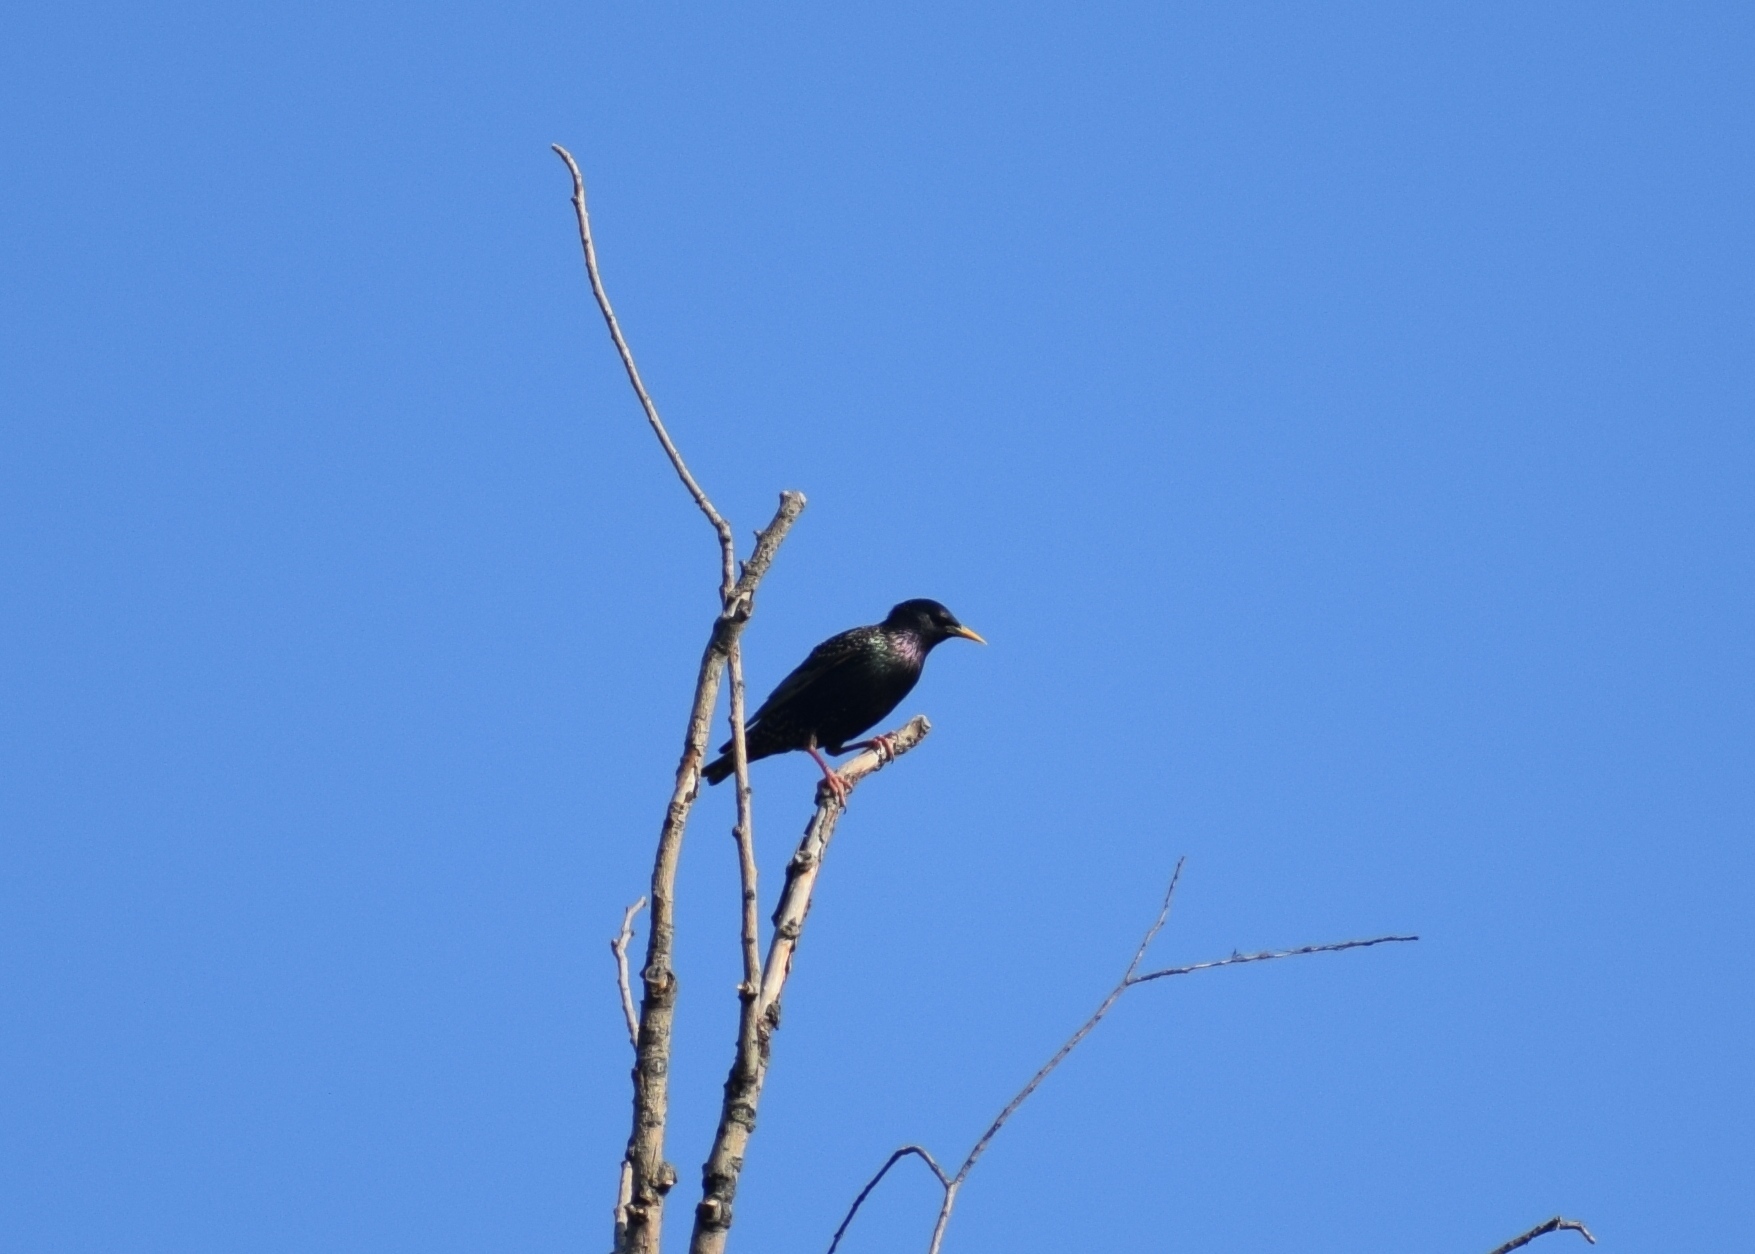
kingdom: Animalia
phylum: Chordata
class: Aves
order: Passeriformes
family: Sturnidae
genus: Sturnus
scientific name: Sturnus vulgaris
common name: Common starling
